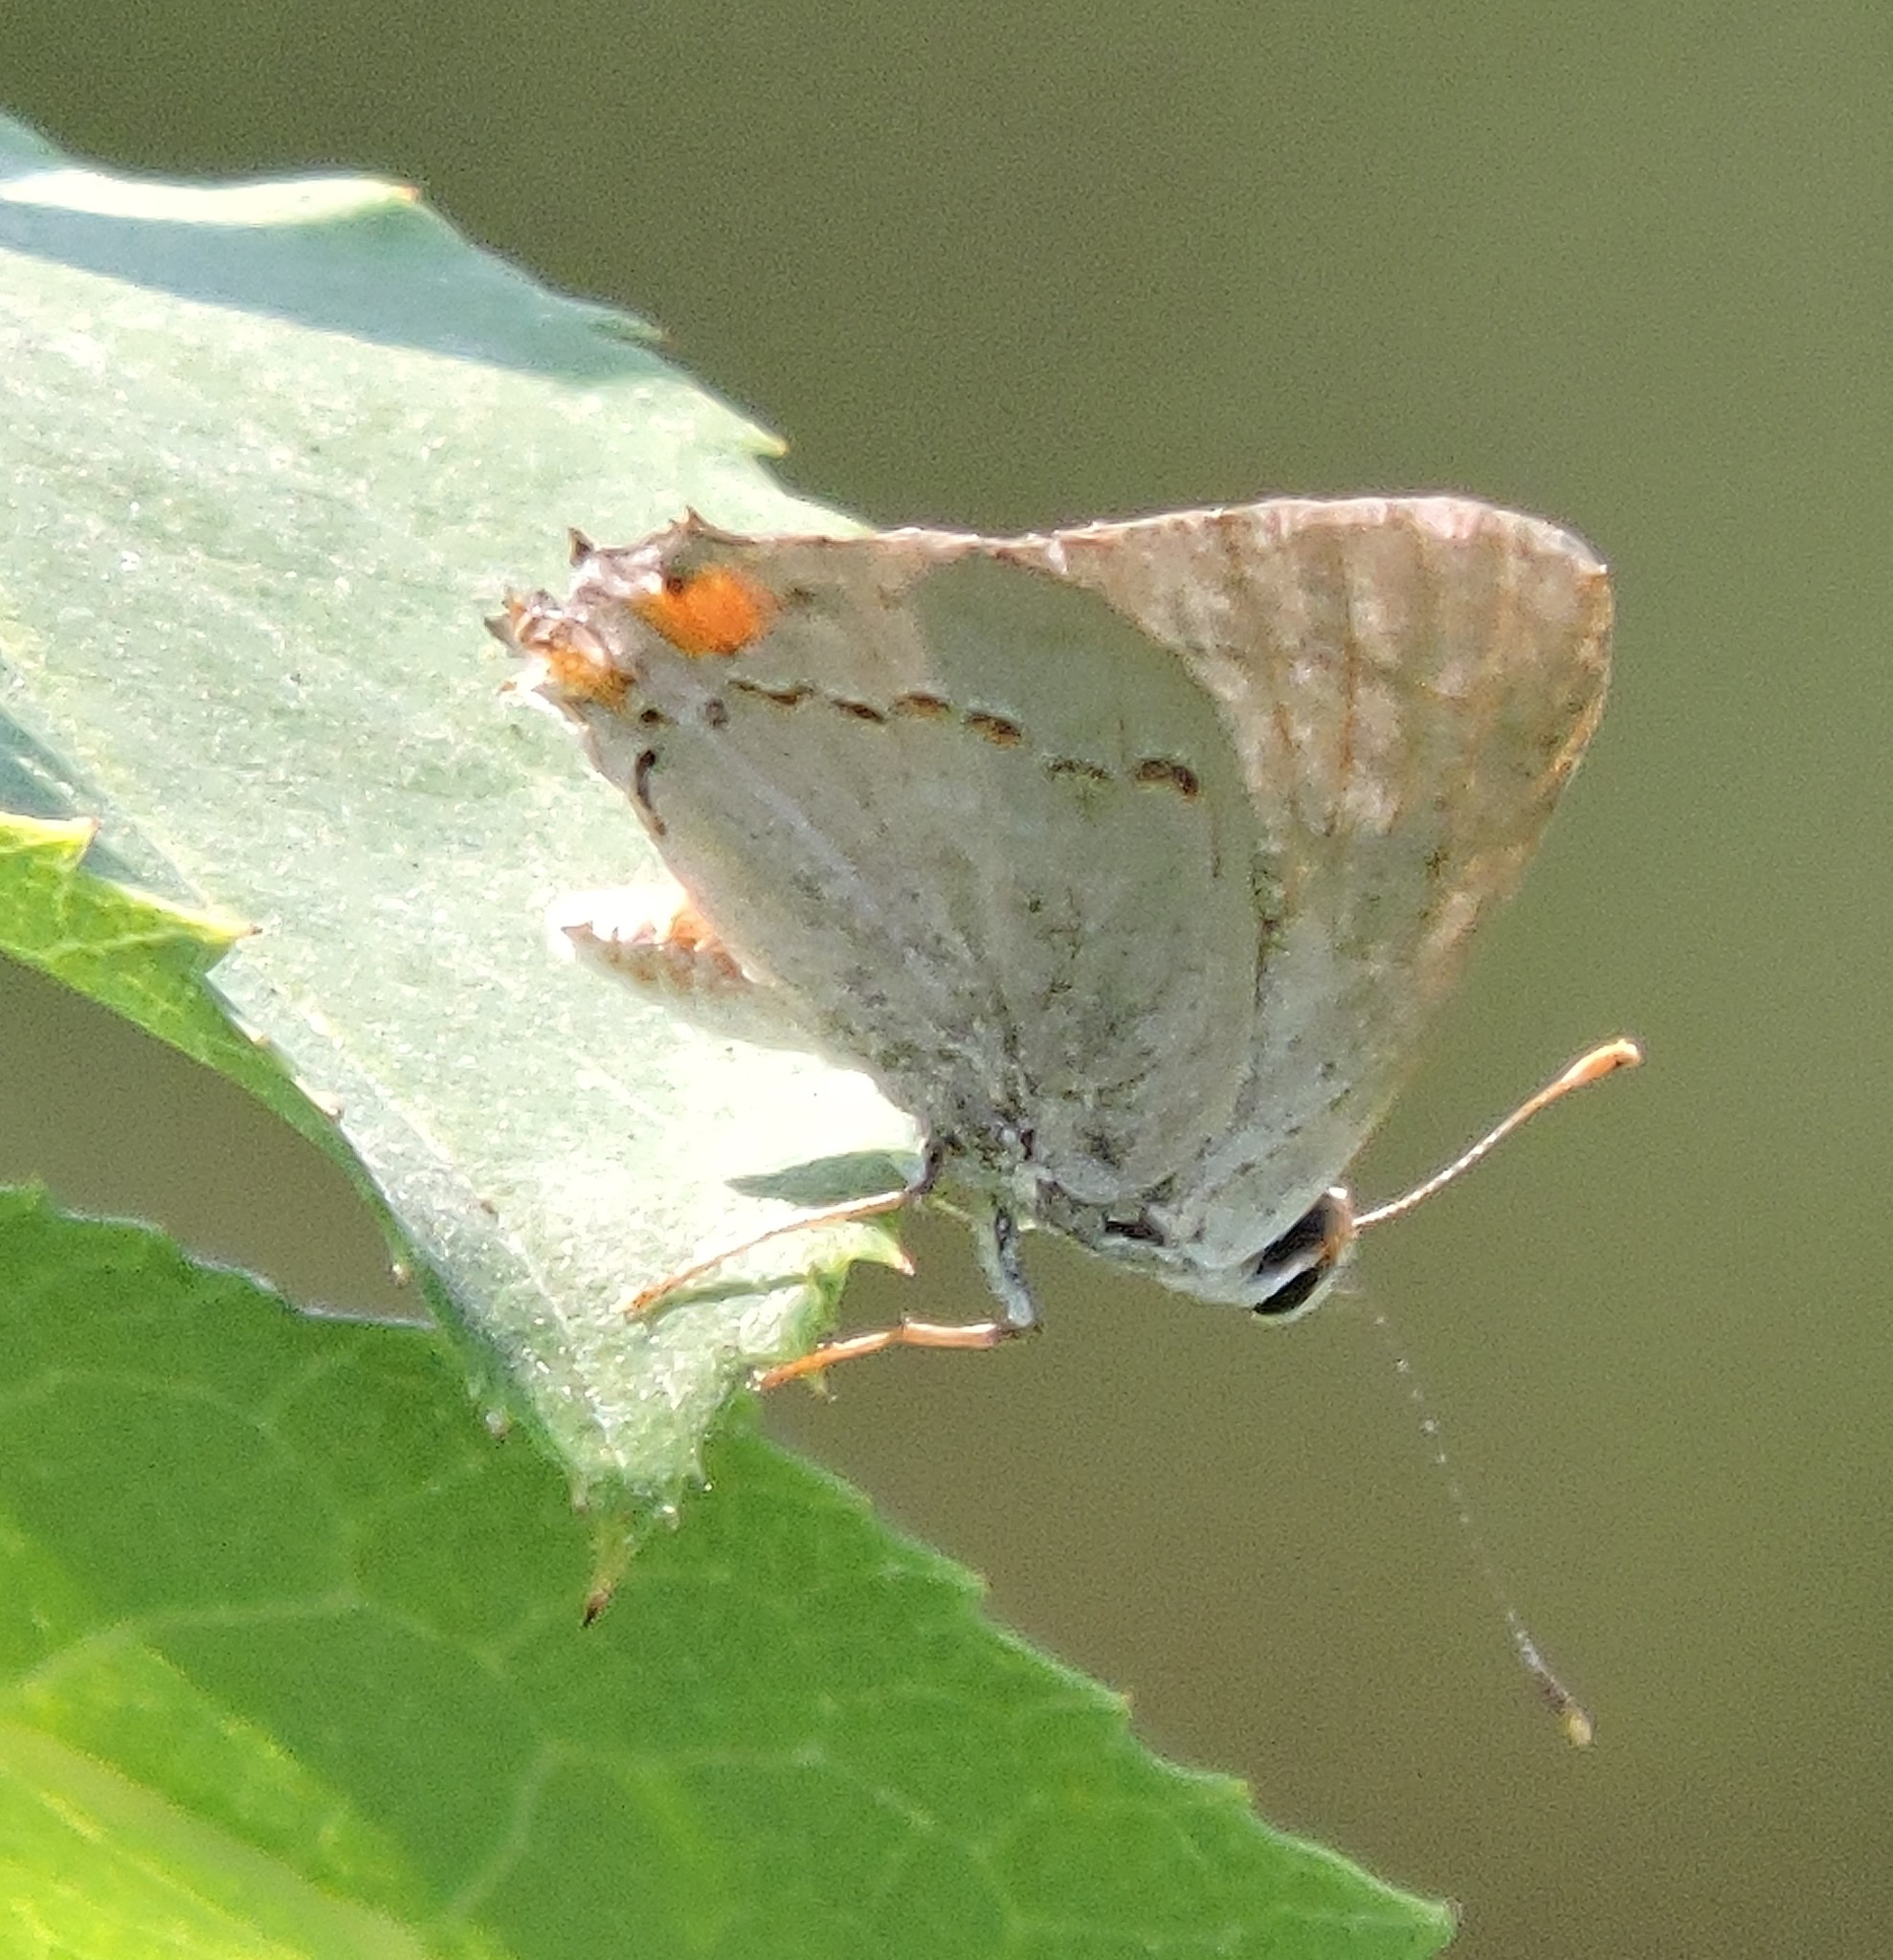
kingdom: Animalia
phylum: Arthropoda
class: Insecta
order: Lepidoptera
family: Lycaenidae
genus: Strymon
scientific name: Strymon melinus
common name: Gray hairstreak
